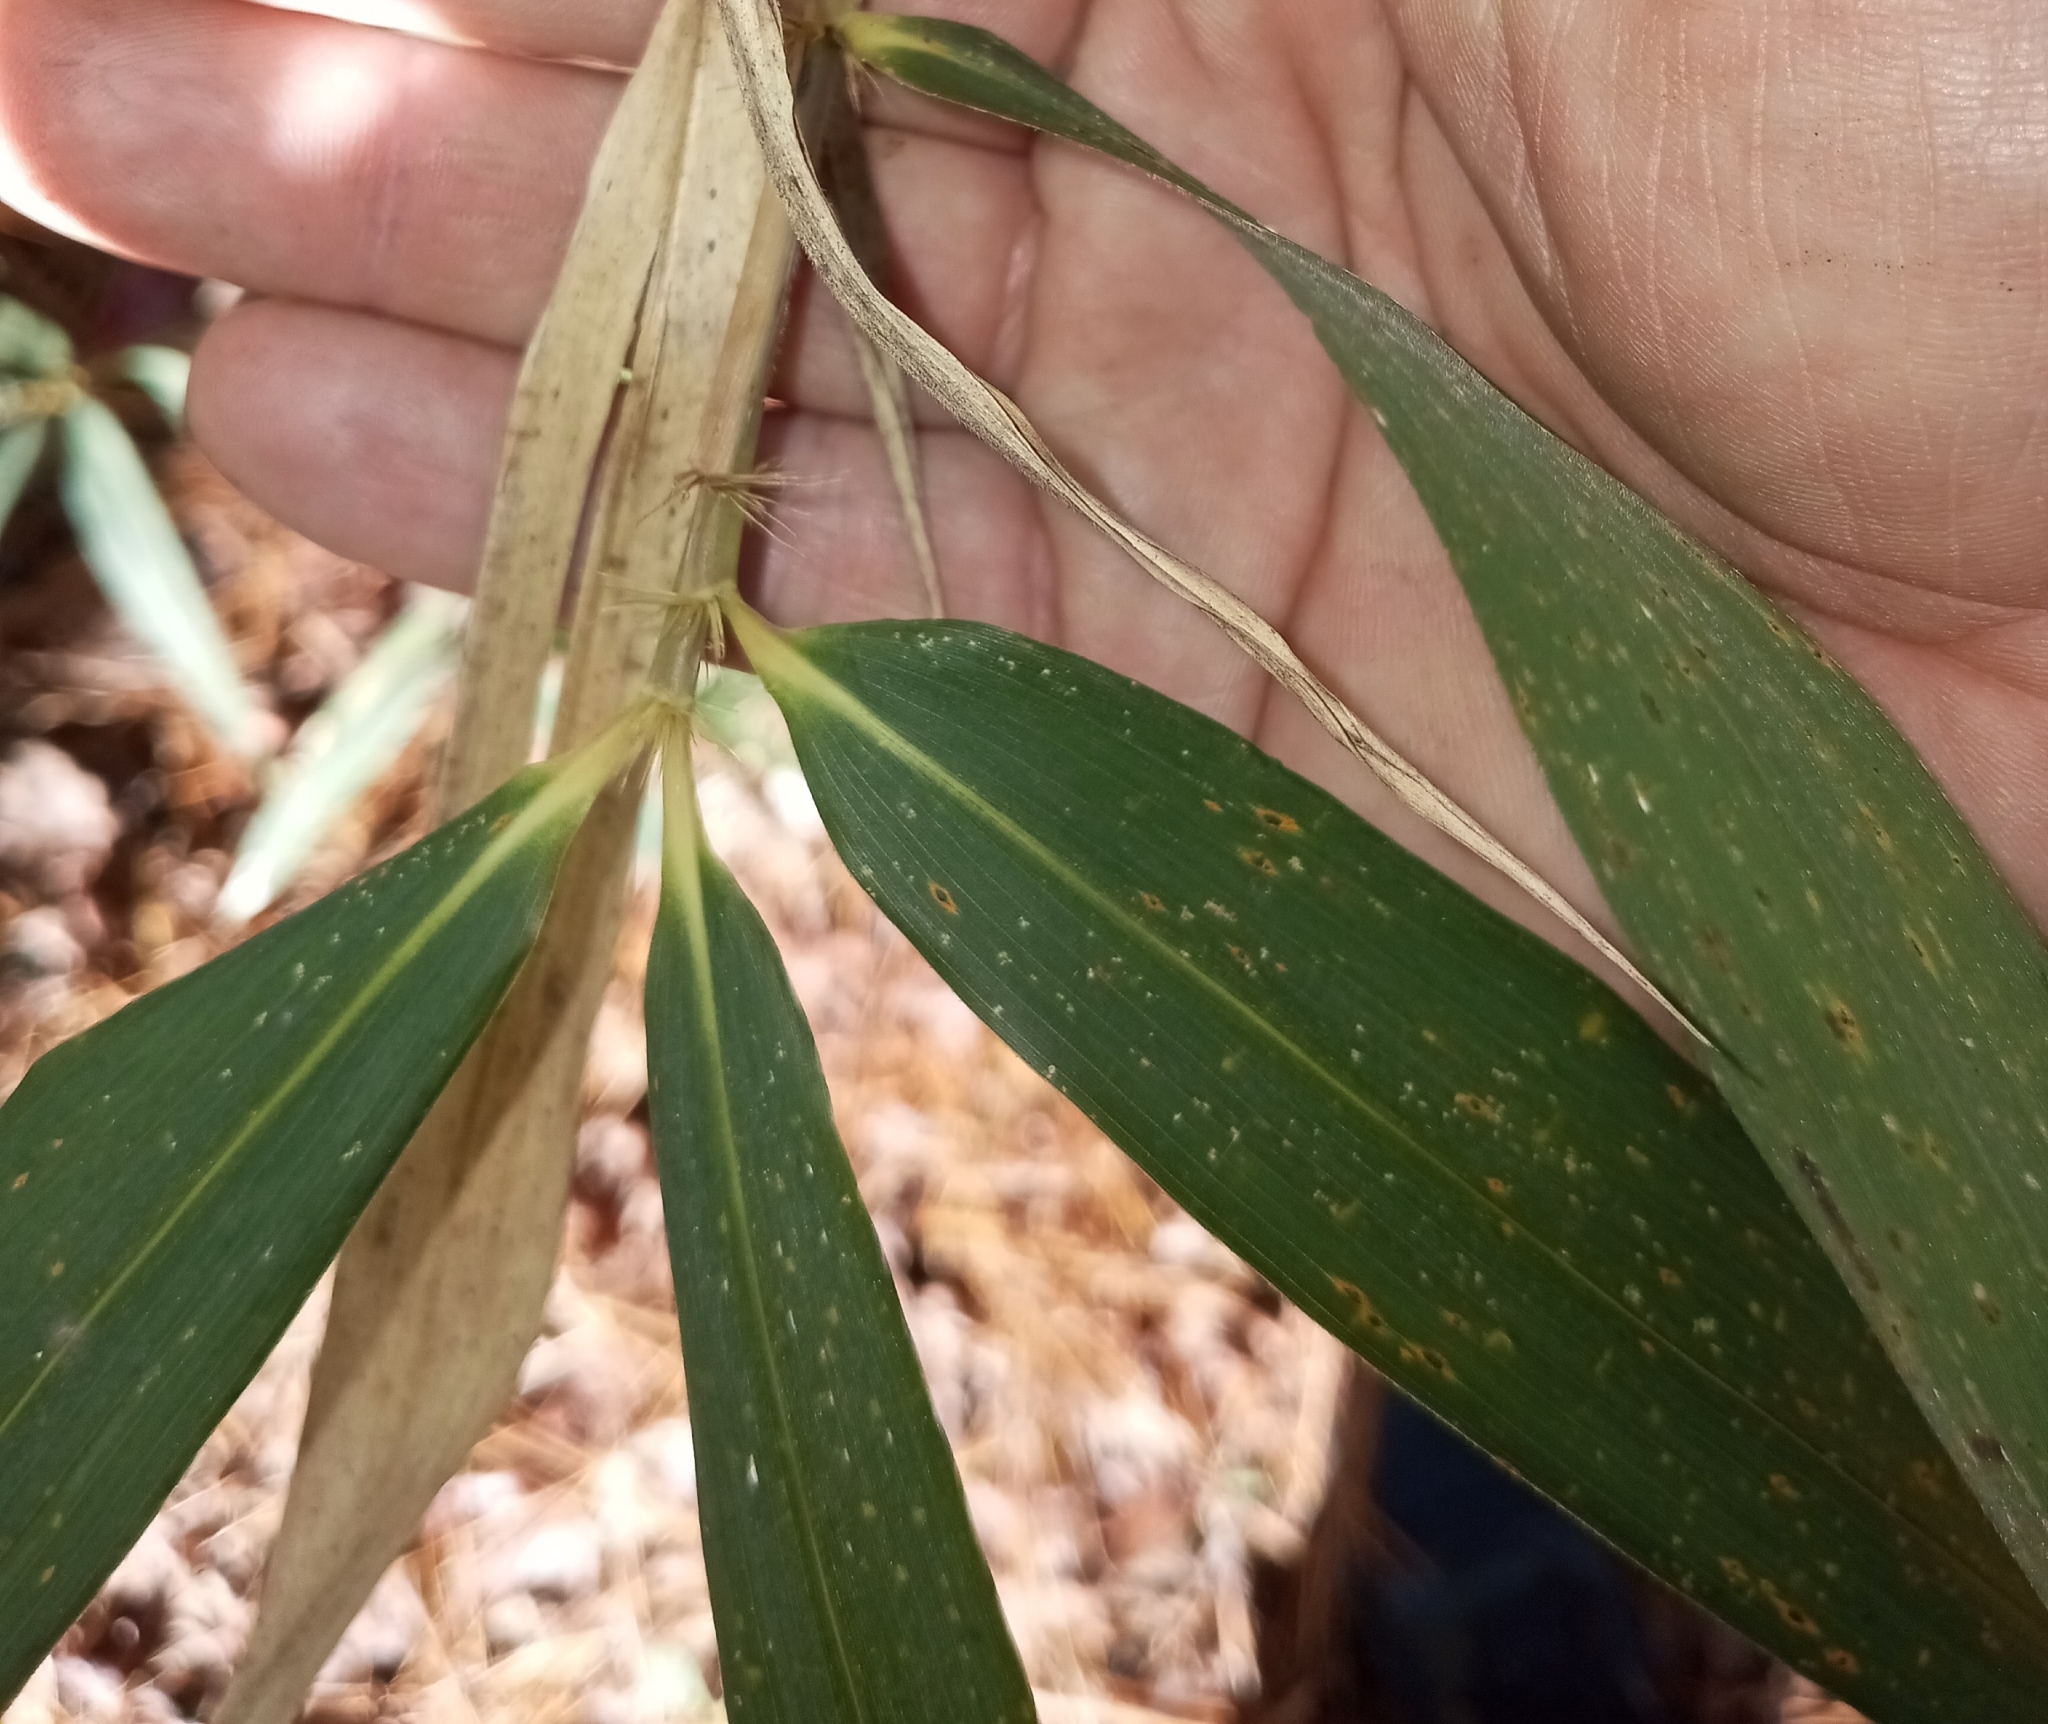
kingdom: Plantae
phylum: Tracheophyta
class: Liliopsida
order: Poales
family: Poaceae
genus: Arundinaria
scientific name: Arundinaria tecta
